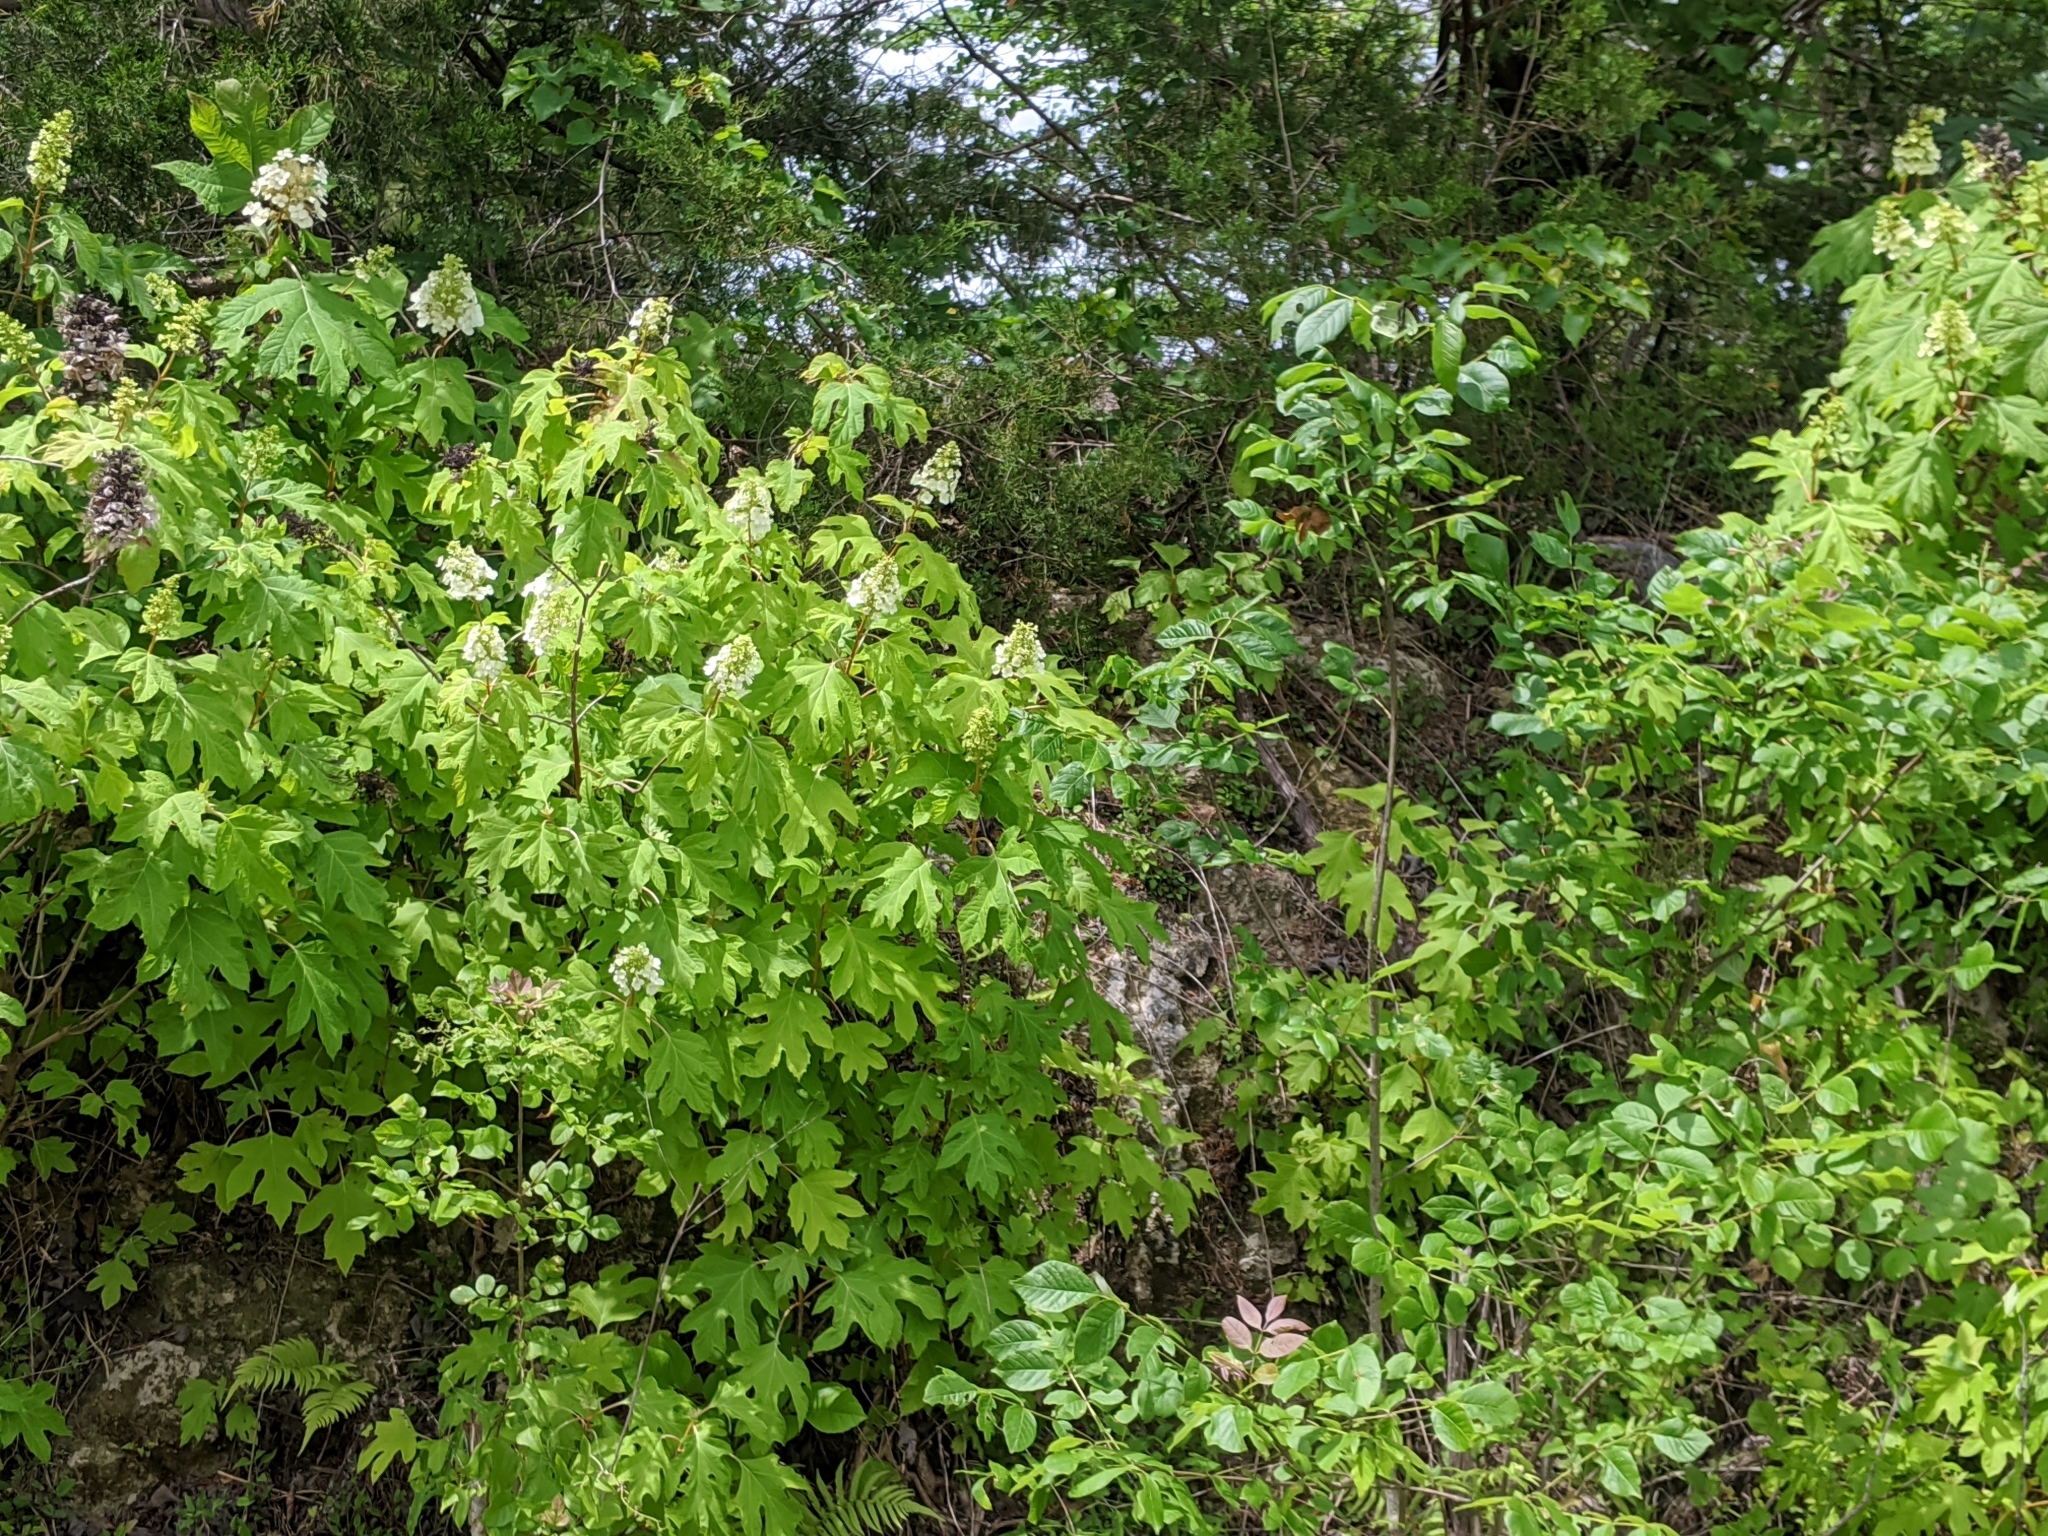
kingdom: Plantae
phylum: Tracheophyta
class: Magnoliopsida
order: Cornales
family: Hydrangeaceae
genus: Hydrangea
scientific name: Hydrangea quercifolia
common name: Oak-leaf hydrangea
